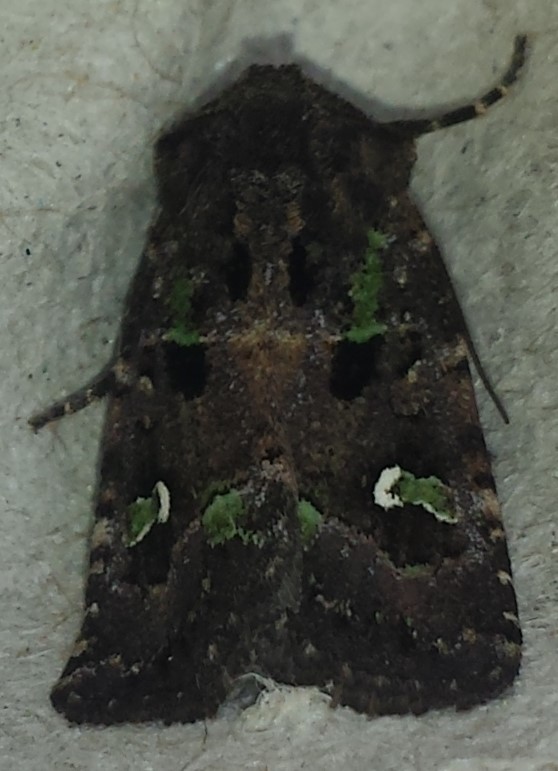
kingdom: Animalia
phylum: Arthropoda
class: Insecta
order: Lepidoptera
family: Noctuidae
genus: Lacinipolia
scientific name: Lacinipolia renigera
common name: Kidney-spotted minor
